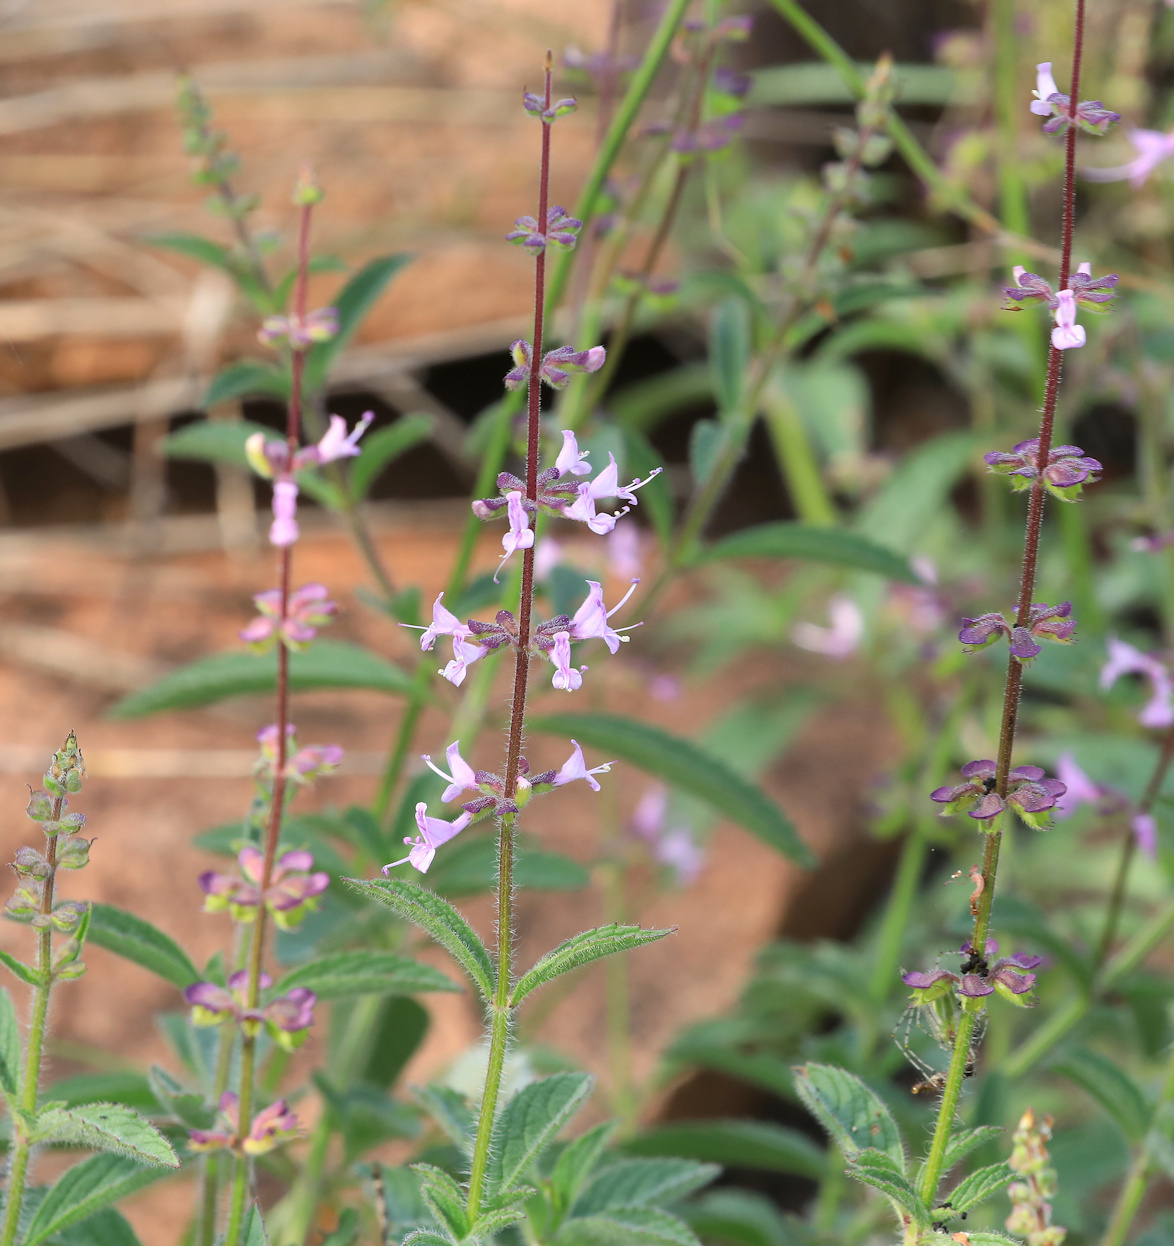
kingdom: Plantae
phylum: Tracheophyta
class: Magnoliopsida
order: Lamiales
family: Lamiaceae
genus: Syncolostemon
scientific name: Syncolostemon canescens
